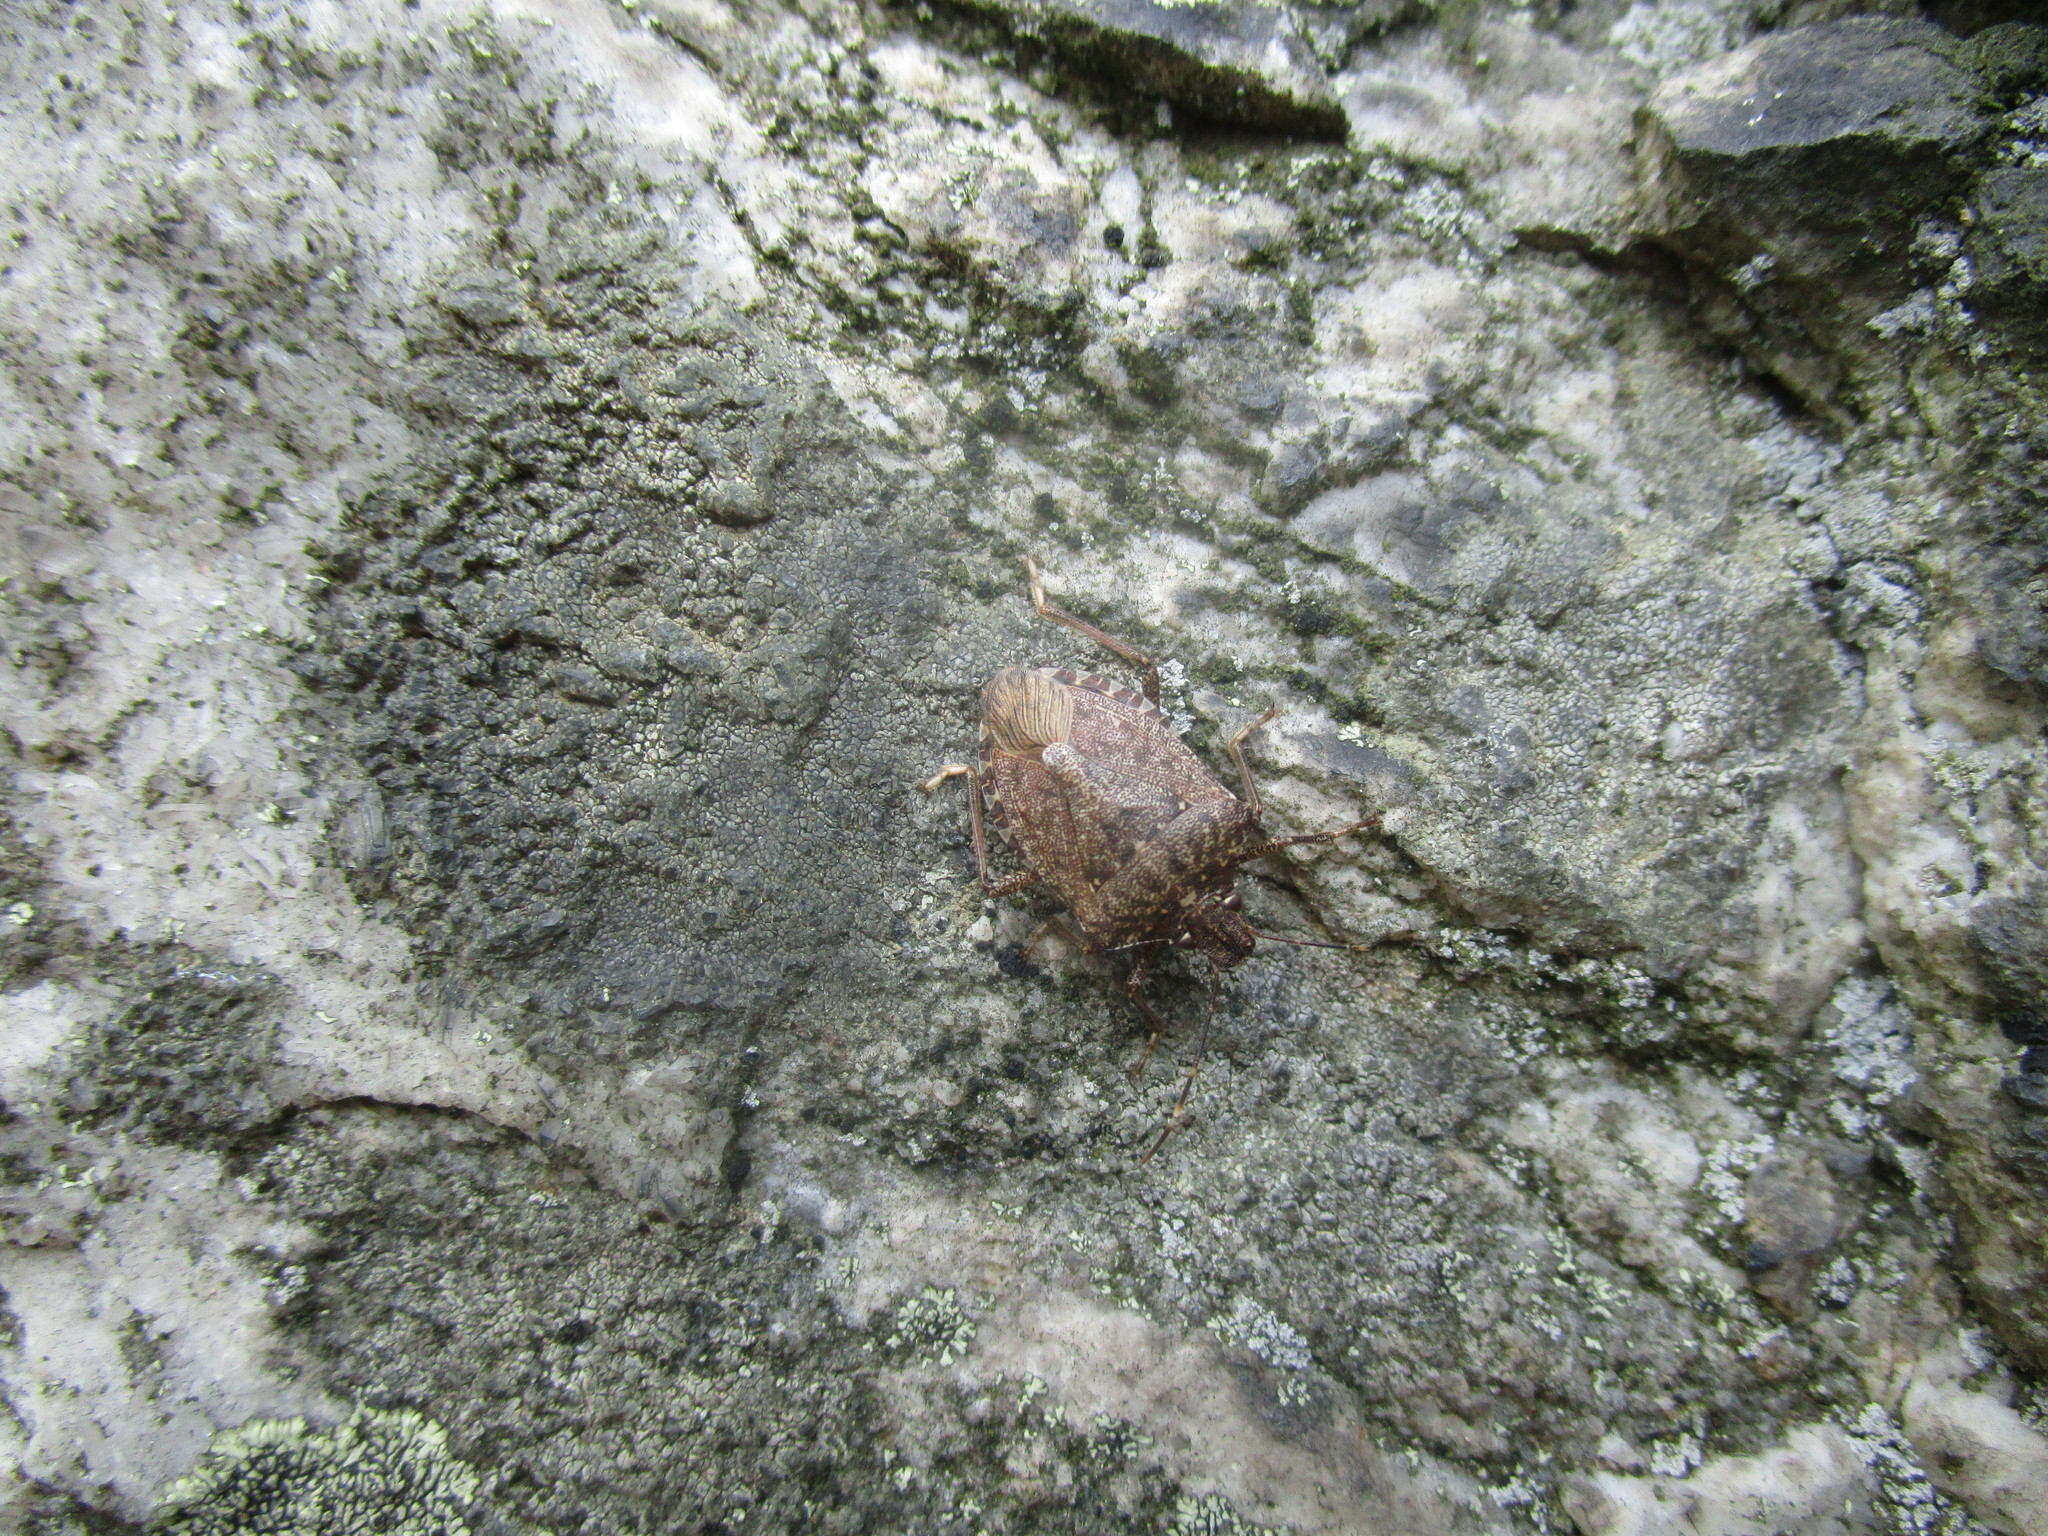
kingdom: Animalia
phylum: Arthropoda
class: Insecta
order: Hemiptera
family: Pentatomidae
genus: Halyomorpha
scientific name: Halyomorpha halys
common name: Brown marmorated stink bug
